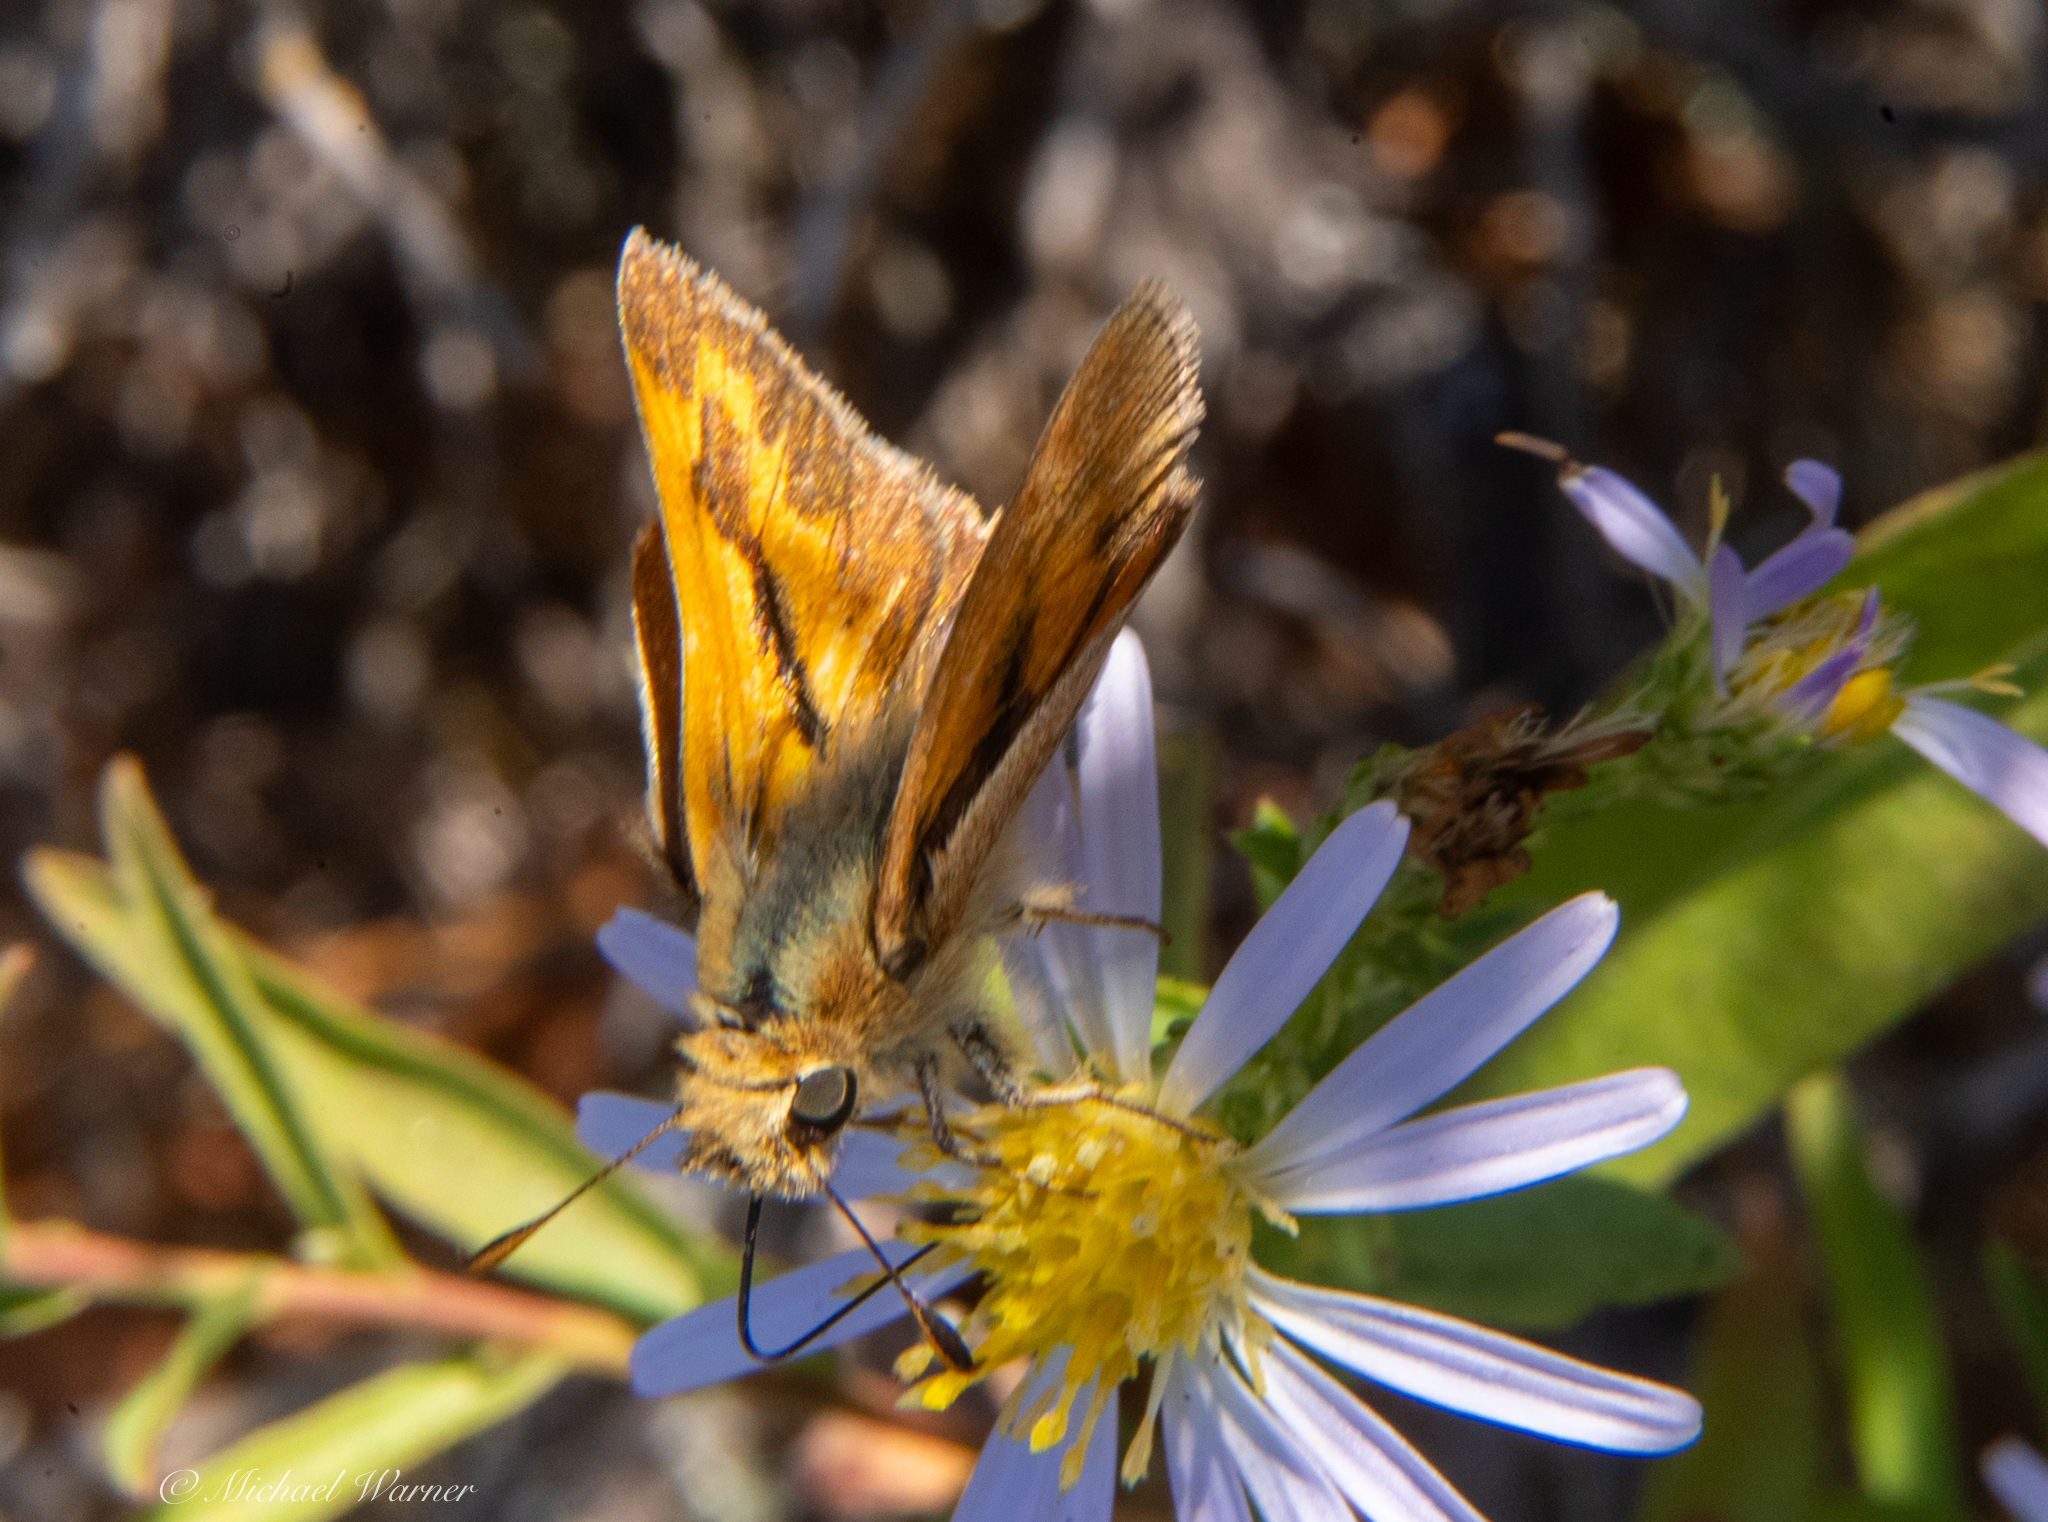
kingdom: Animalia
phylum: Arthropoda
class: Insecta
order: Lepidoptera
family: Hesperiidae
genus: Ochlodes
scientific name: Ochlodes sylvanoides
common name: Woodland skipper
